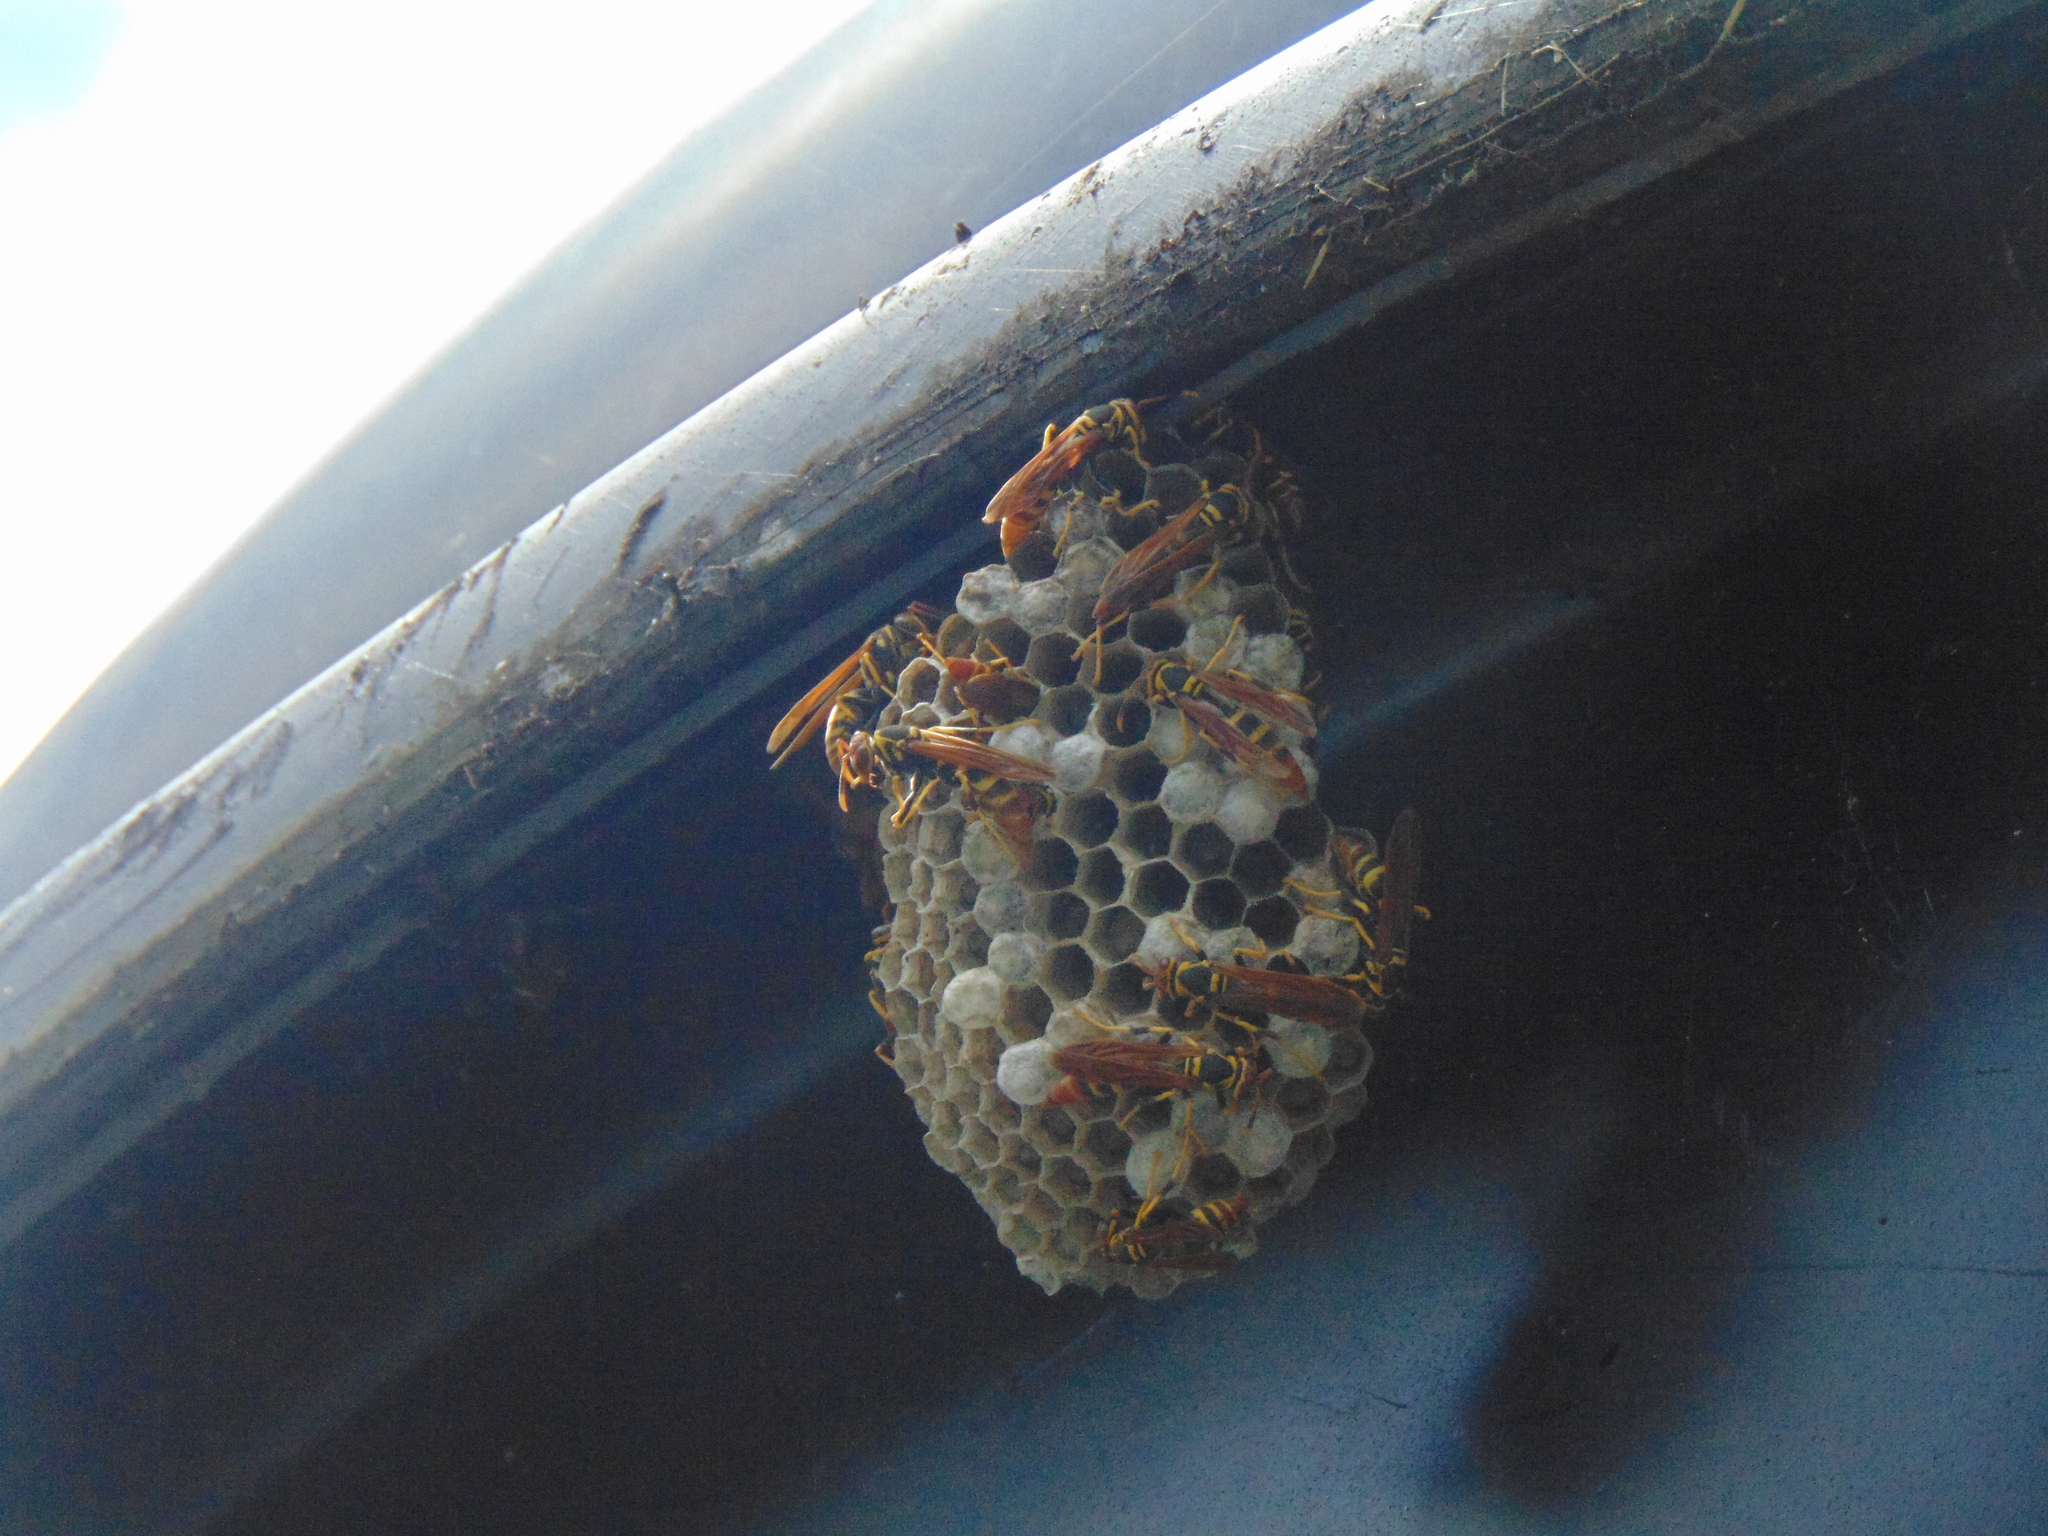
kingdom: Animalia
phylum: Arthropoda
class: Insecta
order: Hymenoptera
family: Eumenidae
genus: Polistes
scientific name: Polistes crinitus
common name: Jack spaniard
